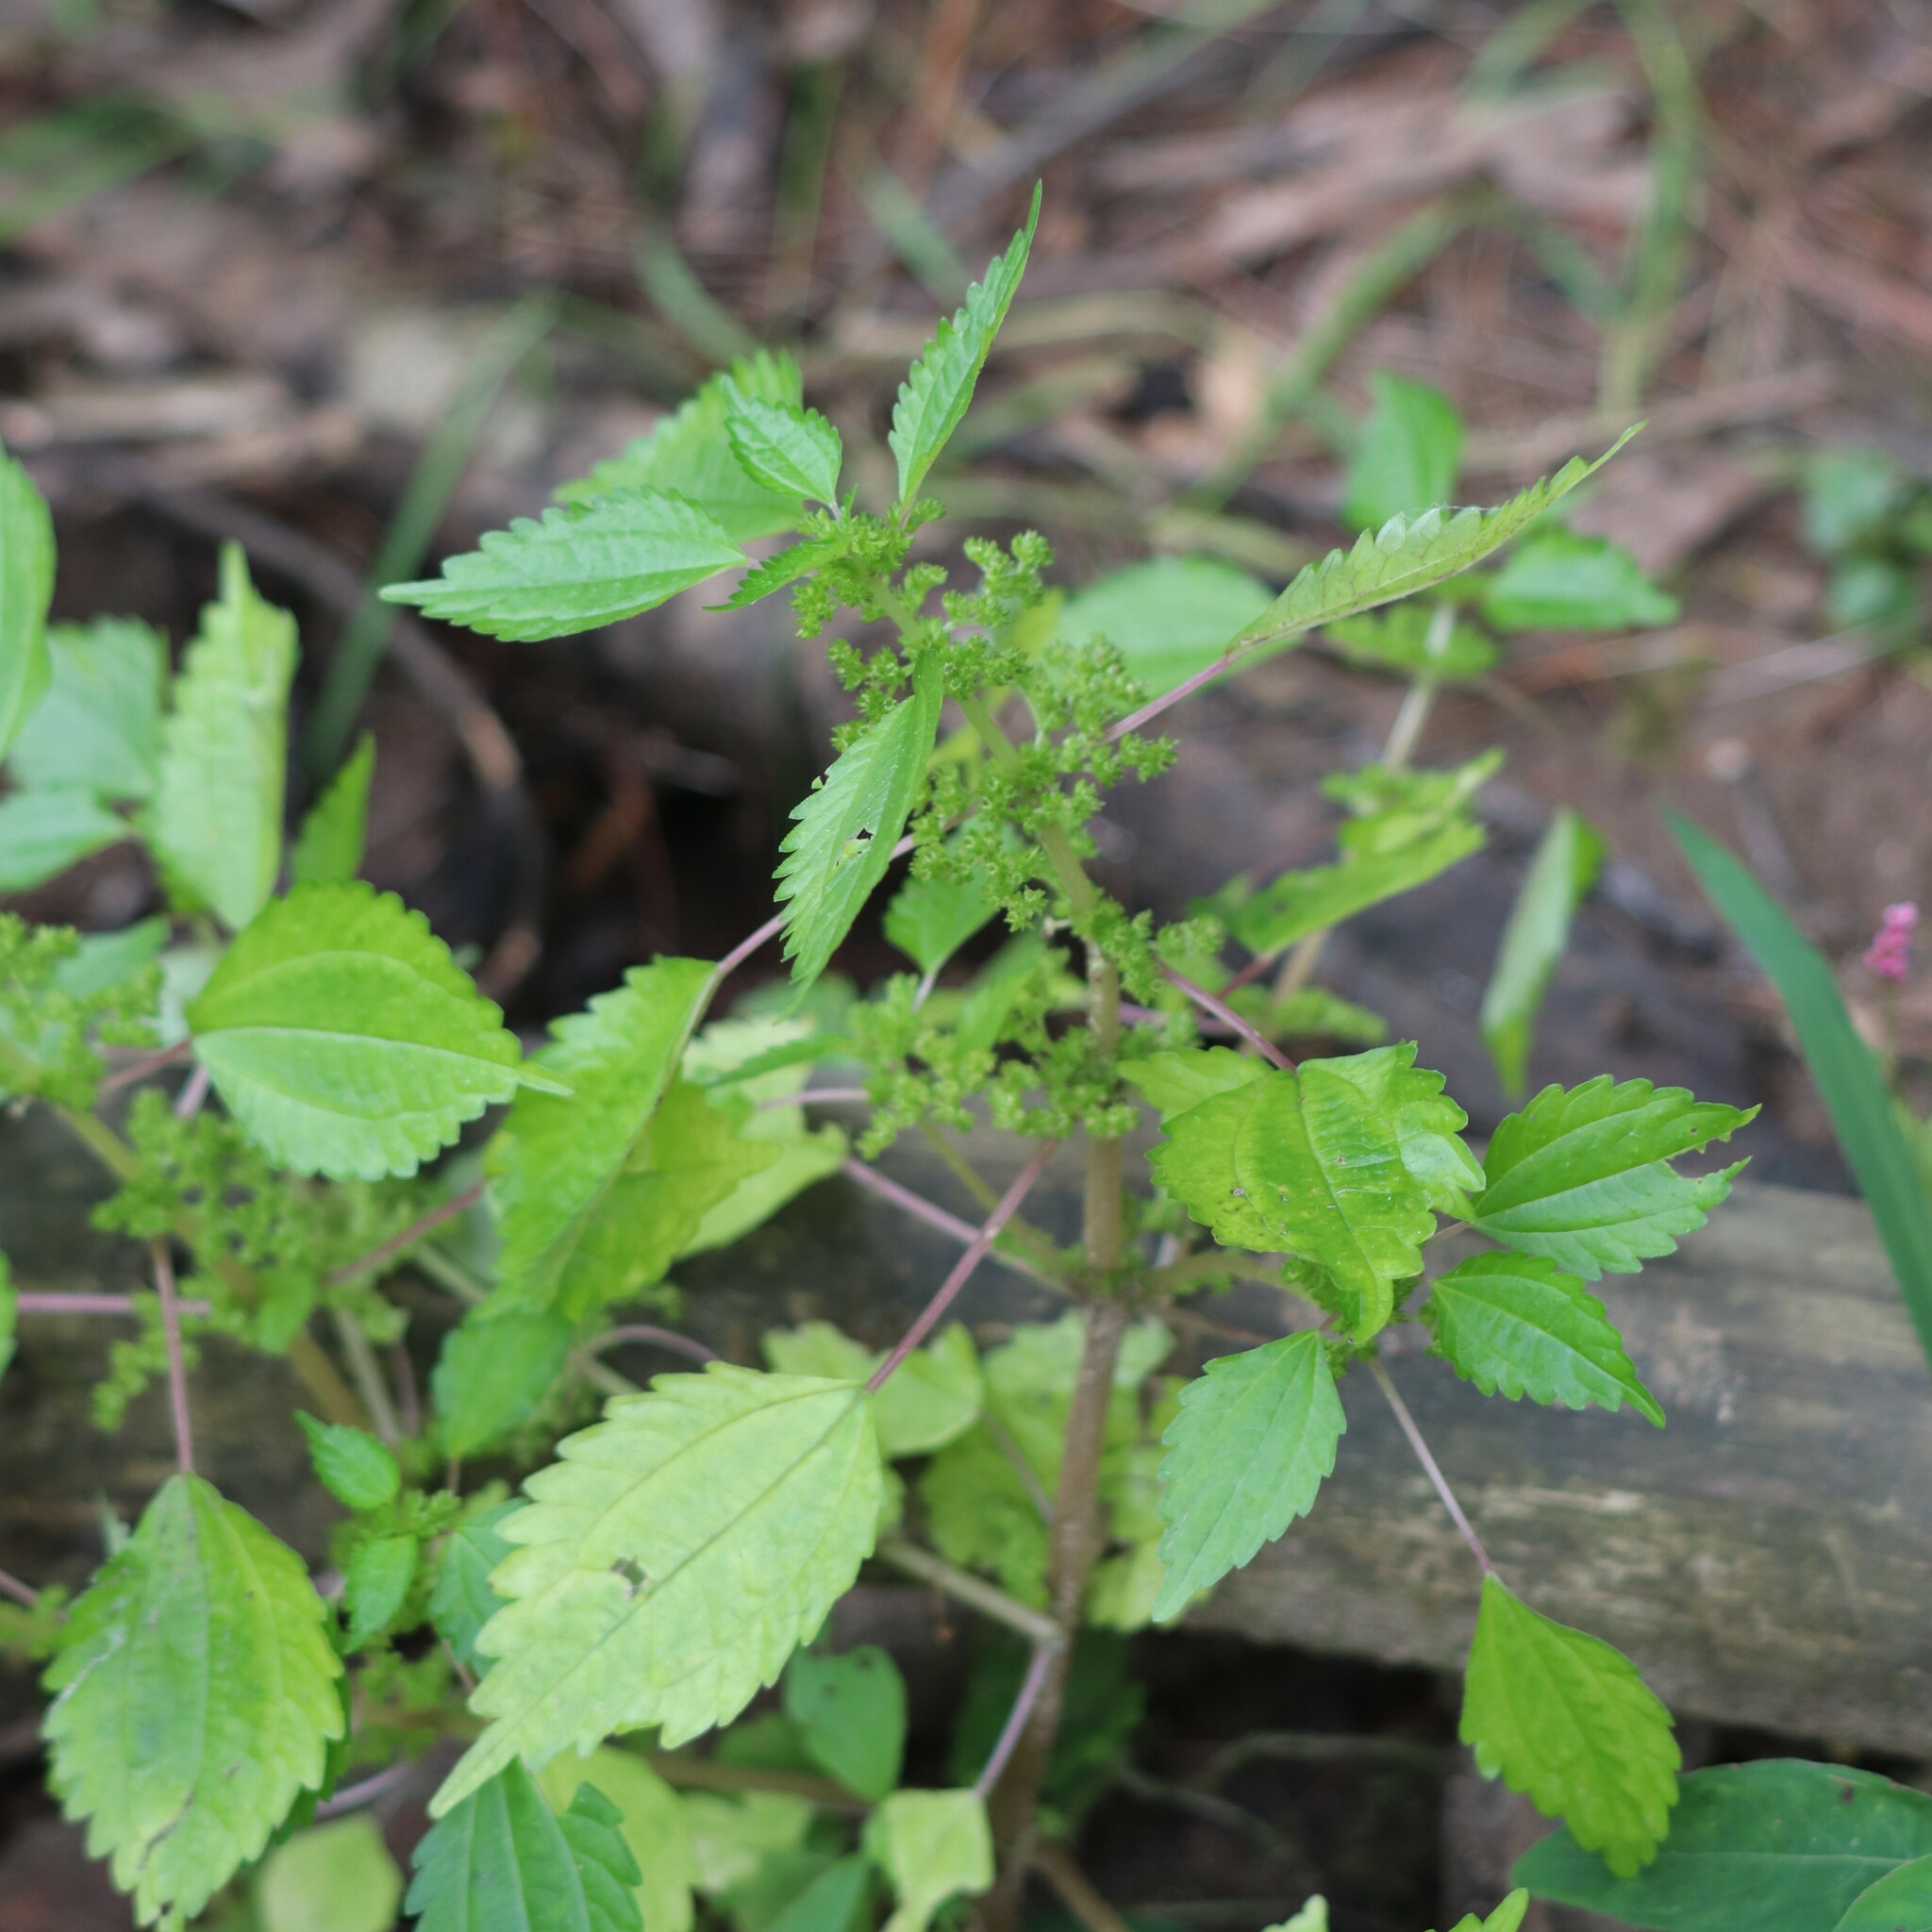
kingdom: Plantae
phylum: Tracheophyta
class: Magnoliopsida
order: Rosales
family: Urticaceae
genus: Pilea
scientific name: Pilea pumila
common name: Clearweed
